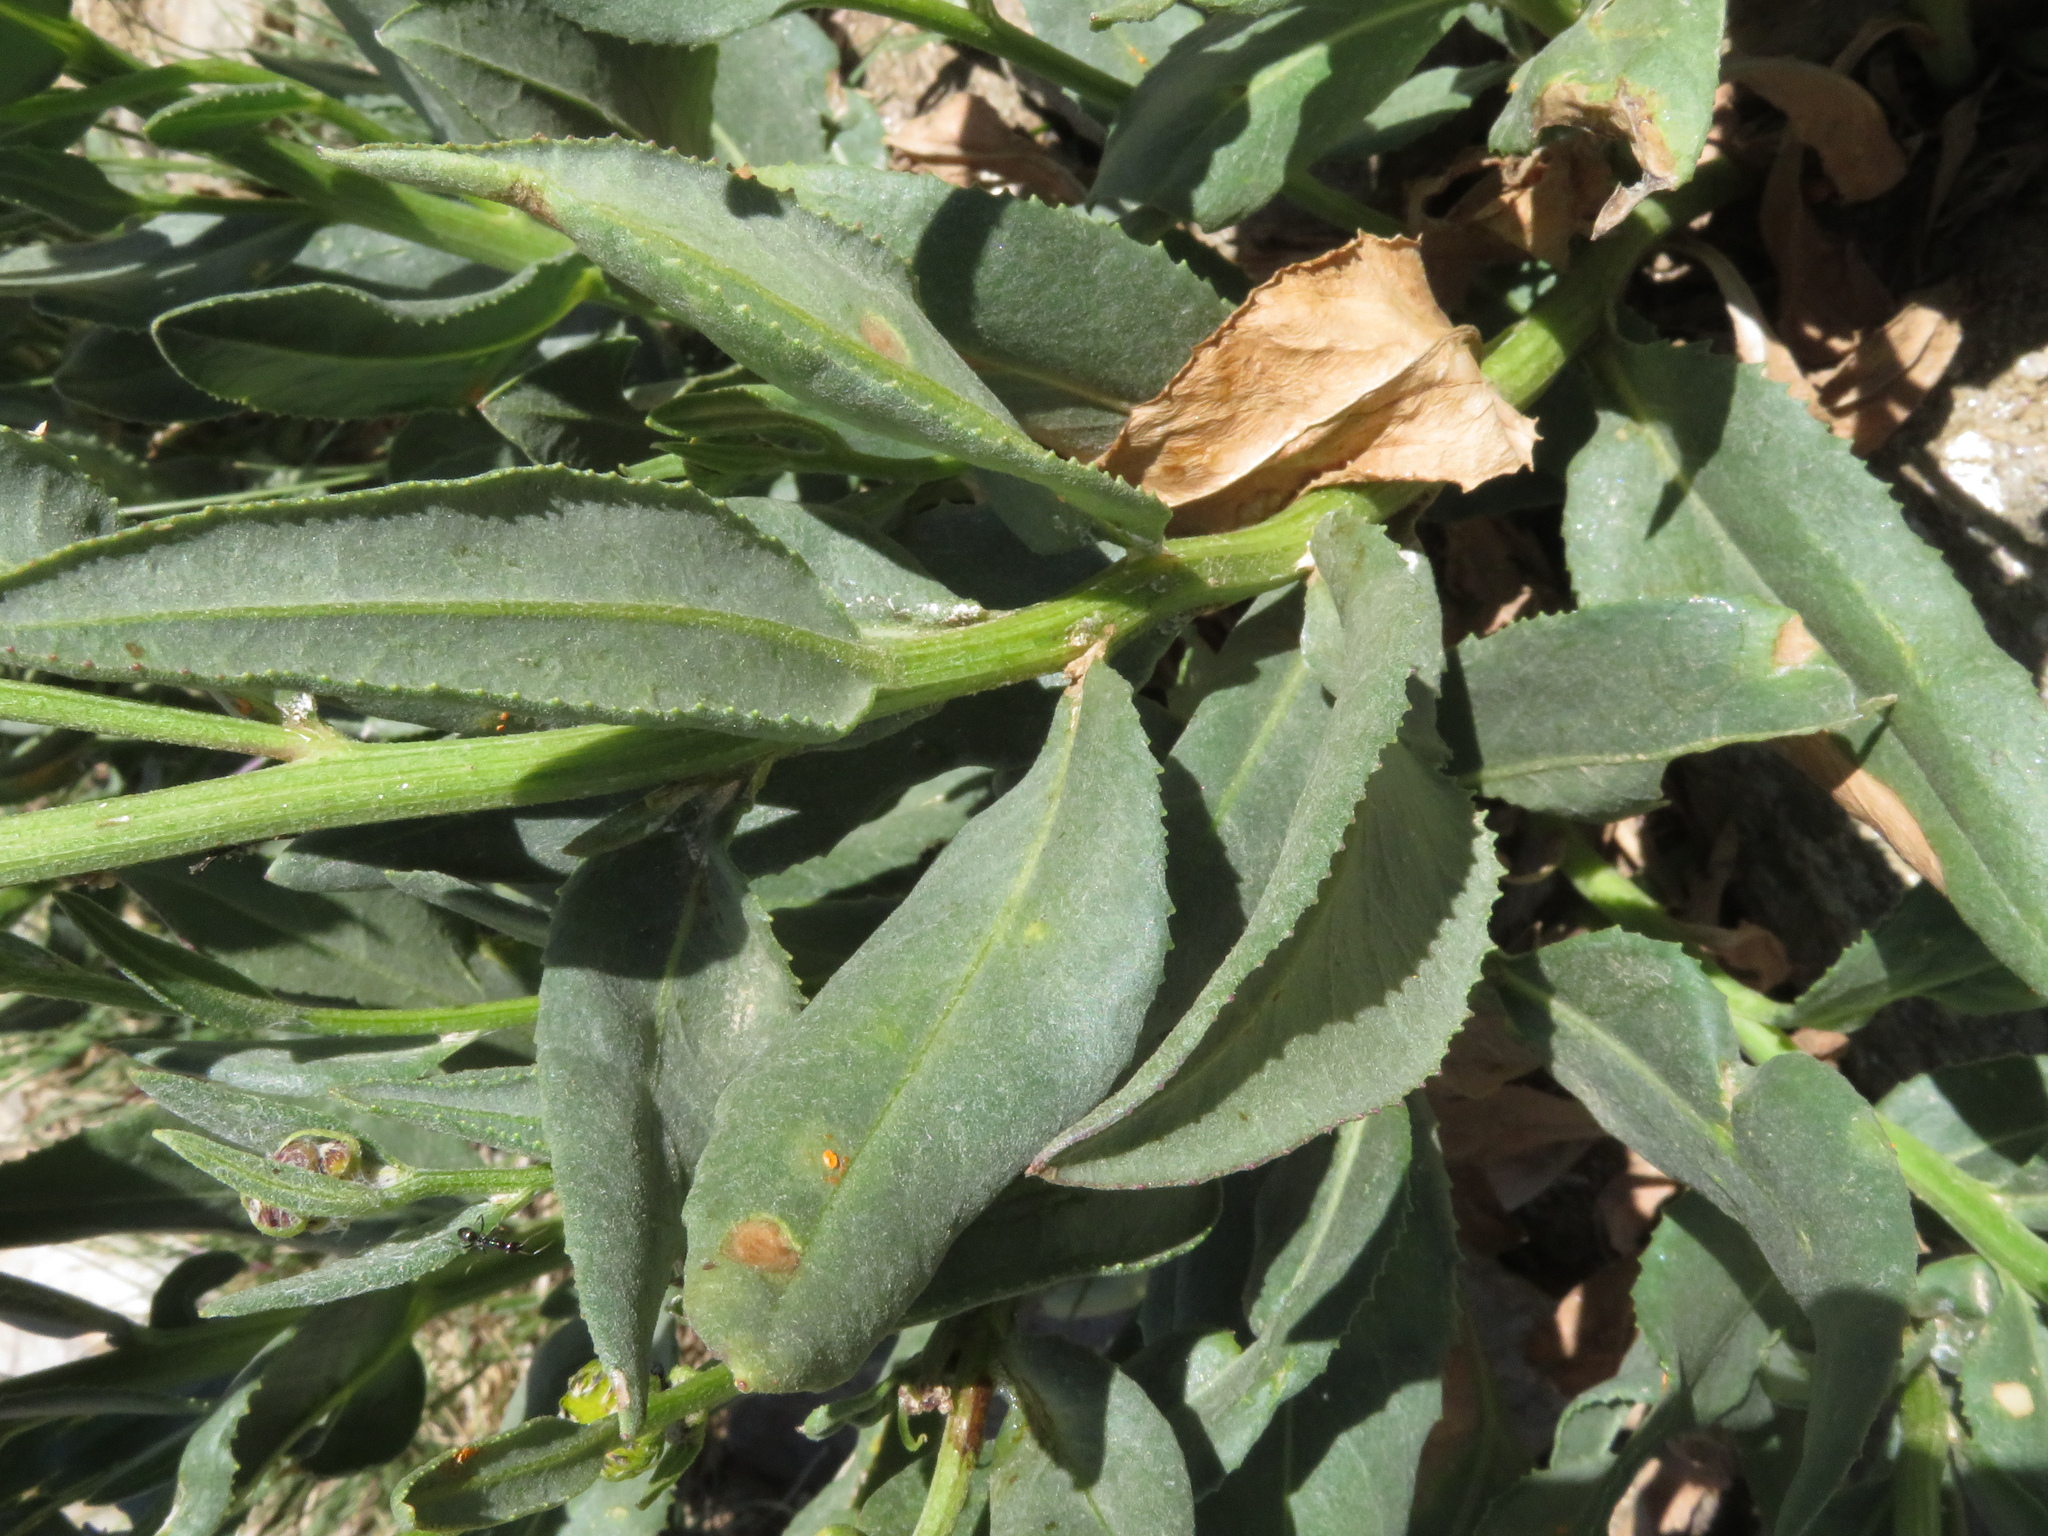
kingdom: Plantae
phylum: Tracheophyta
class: Magnoliopsida
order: Asterales
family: Asteraceae
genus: Senecio
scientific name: Senecio pyrenaicus
